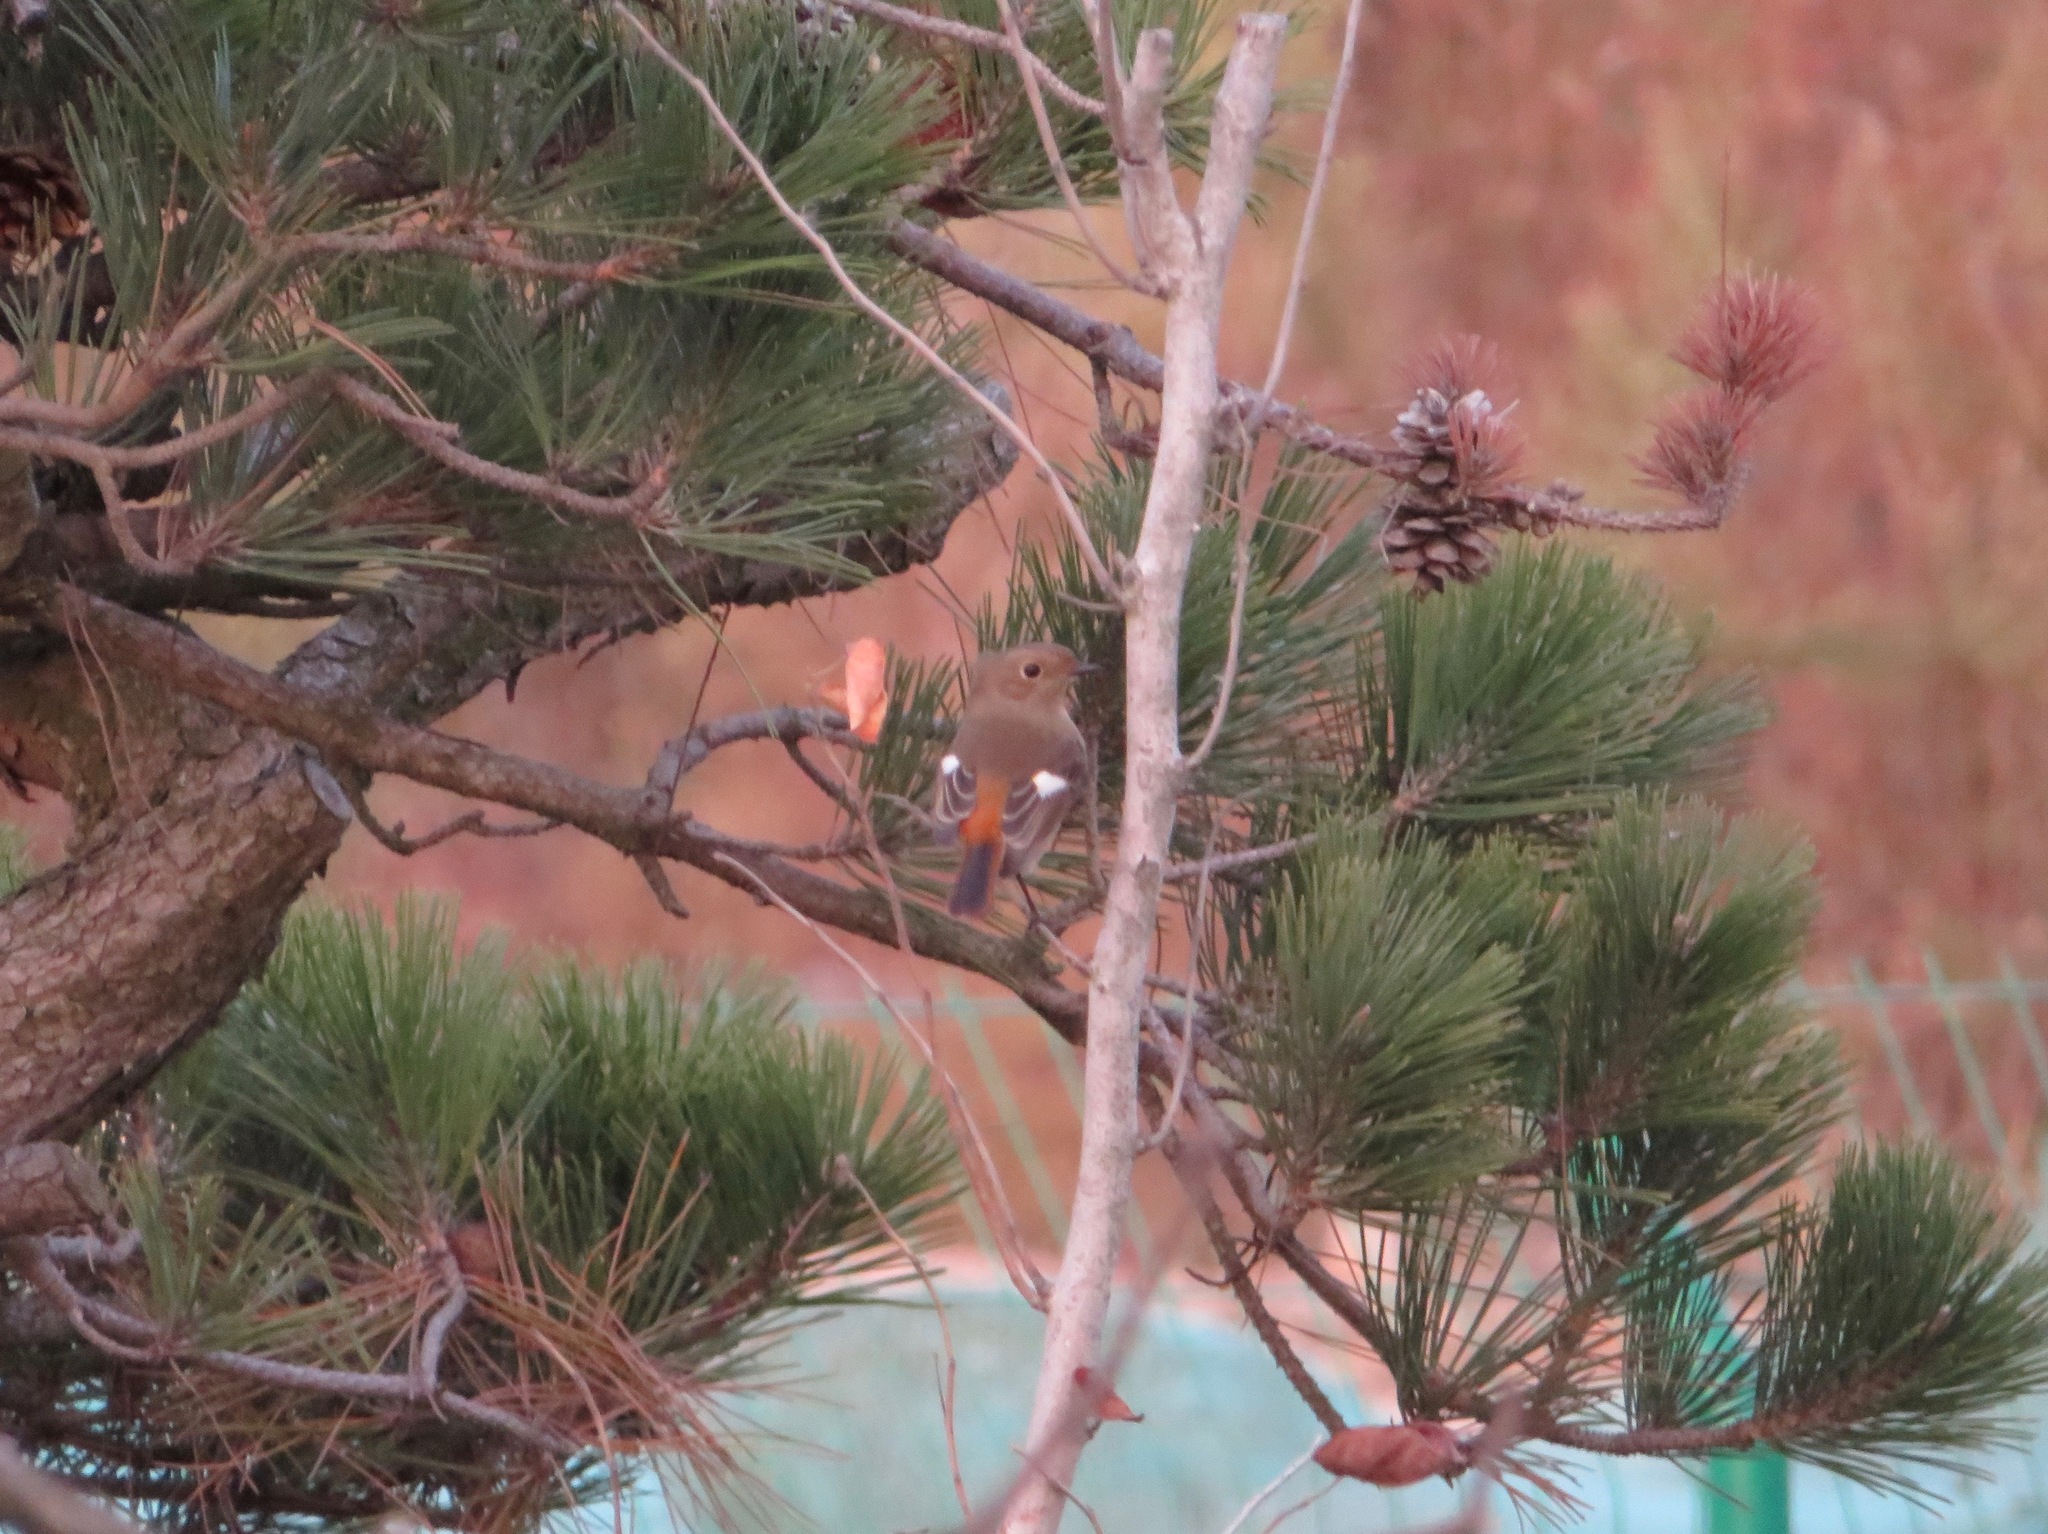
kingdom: Animalia
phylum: Chordata
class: Aves
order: Passeriformes
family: Muscicapidae
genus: Phoenicurus
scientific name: Phoenicurus auroreus
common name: Daurian redstart
